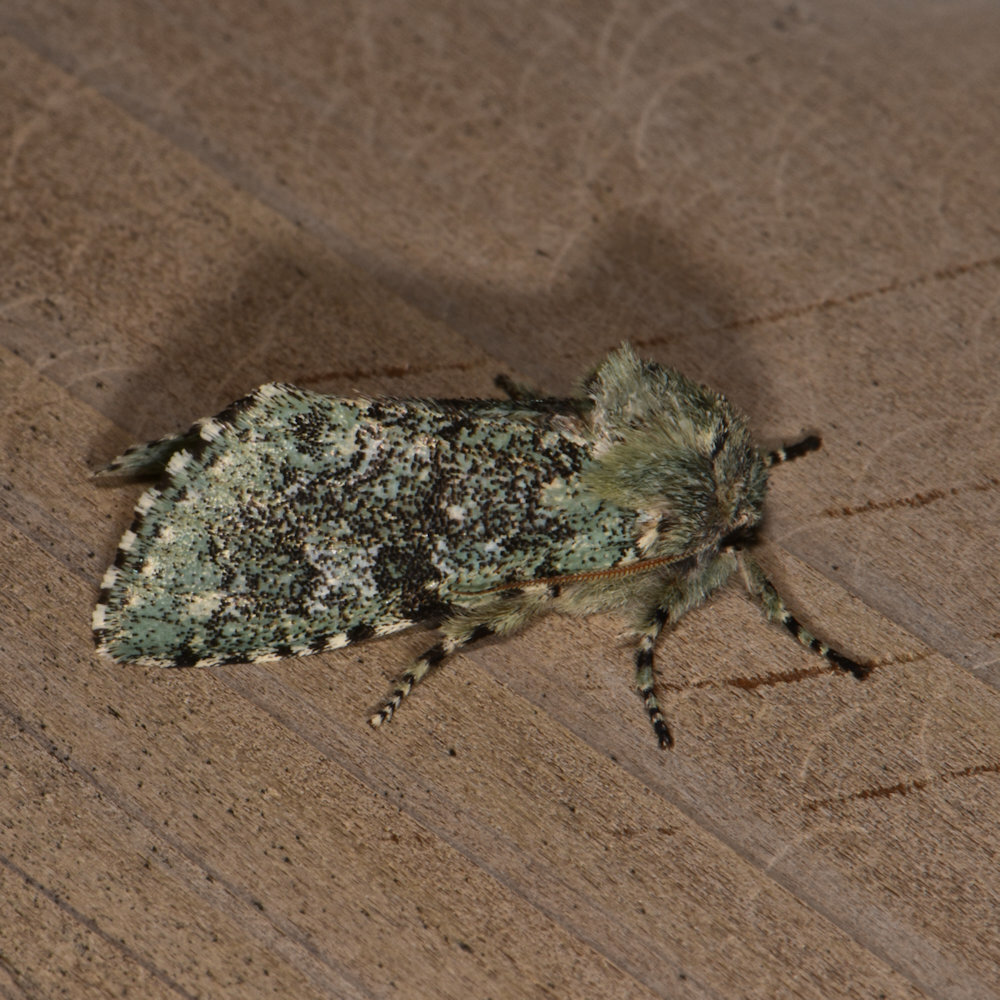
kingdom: Animalia
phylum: Arthropoda
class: Insecta
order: Lepidoptera
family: Noctuidae
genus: Feralia
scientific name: Feralia major
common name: Major sallow
